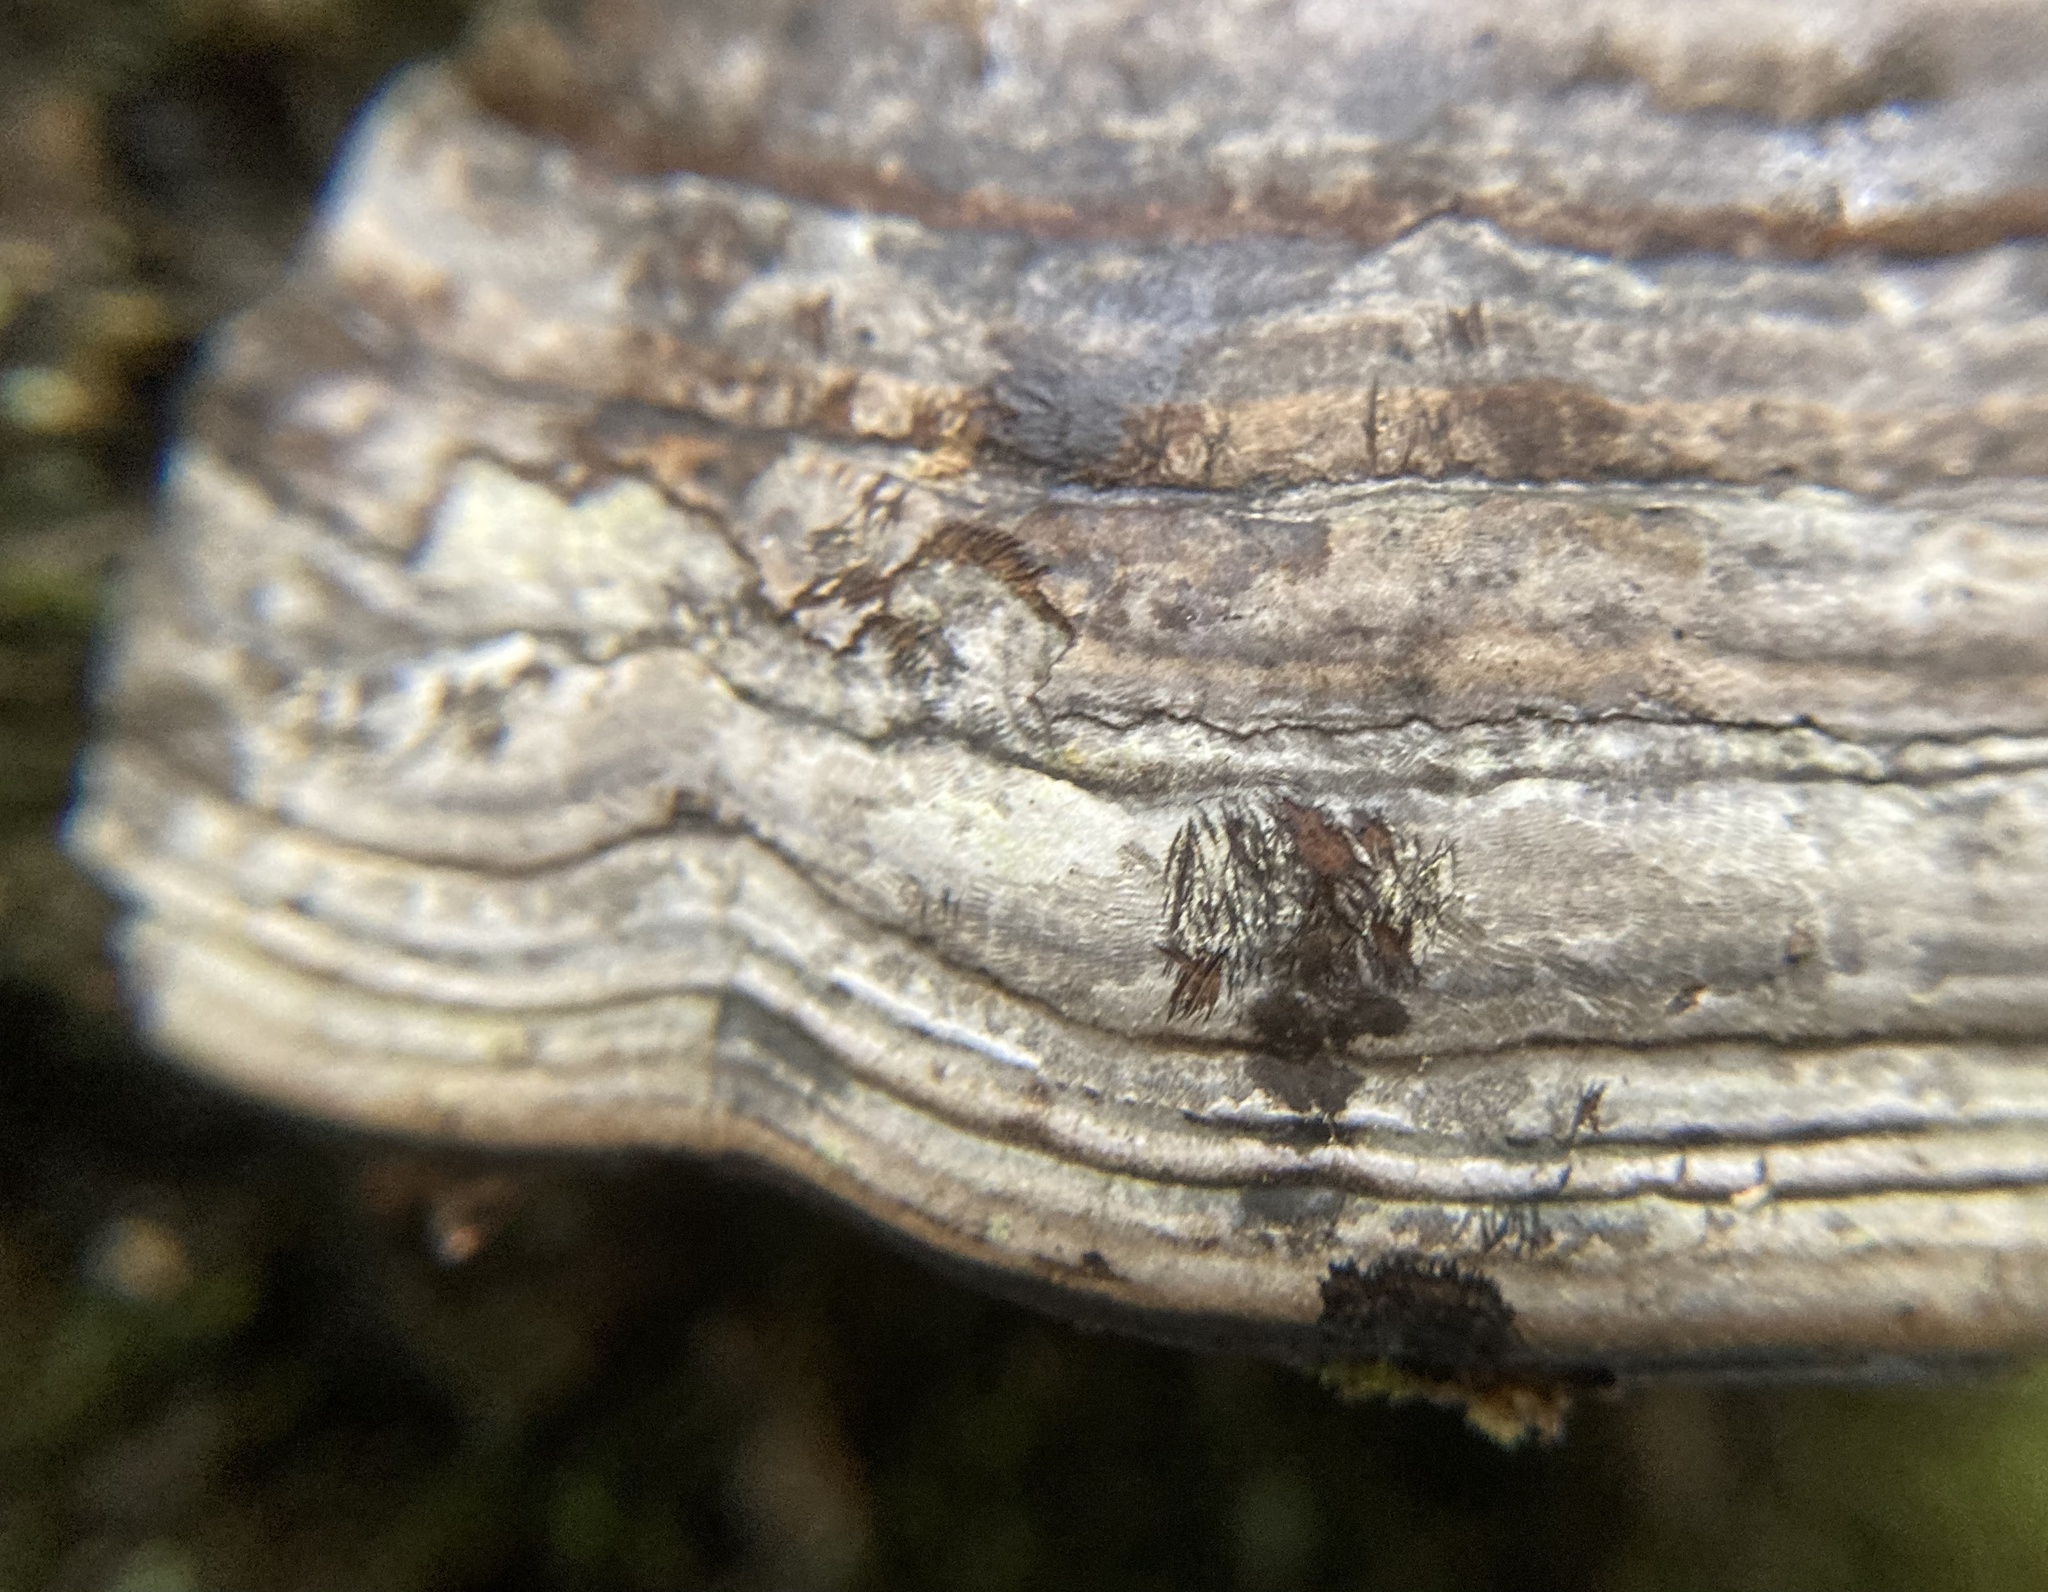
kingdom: Fungi
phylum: Basidiomycota
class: Agaricomycetes
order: Polyporales
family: Polyporaceae
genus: Fomes
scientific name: Fomes fomentarius
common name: Hoof fungus
